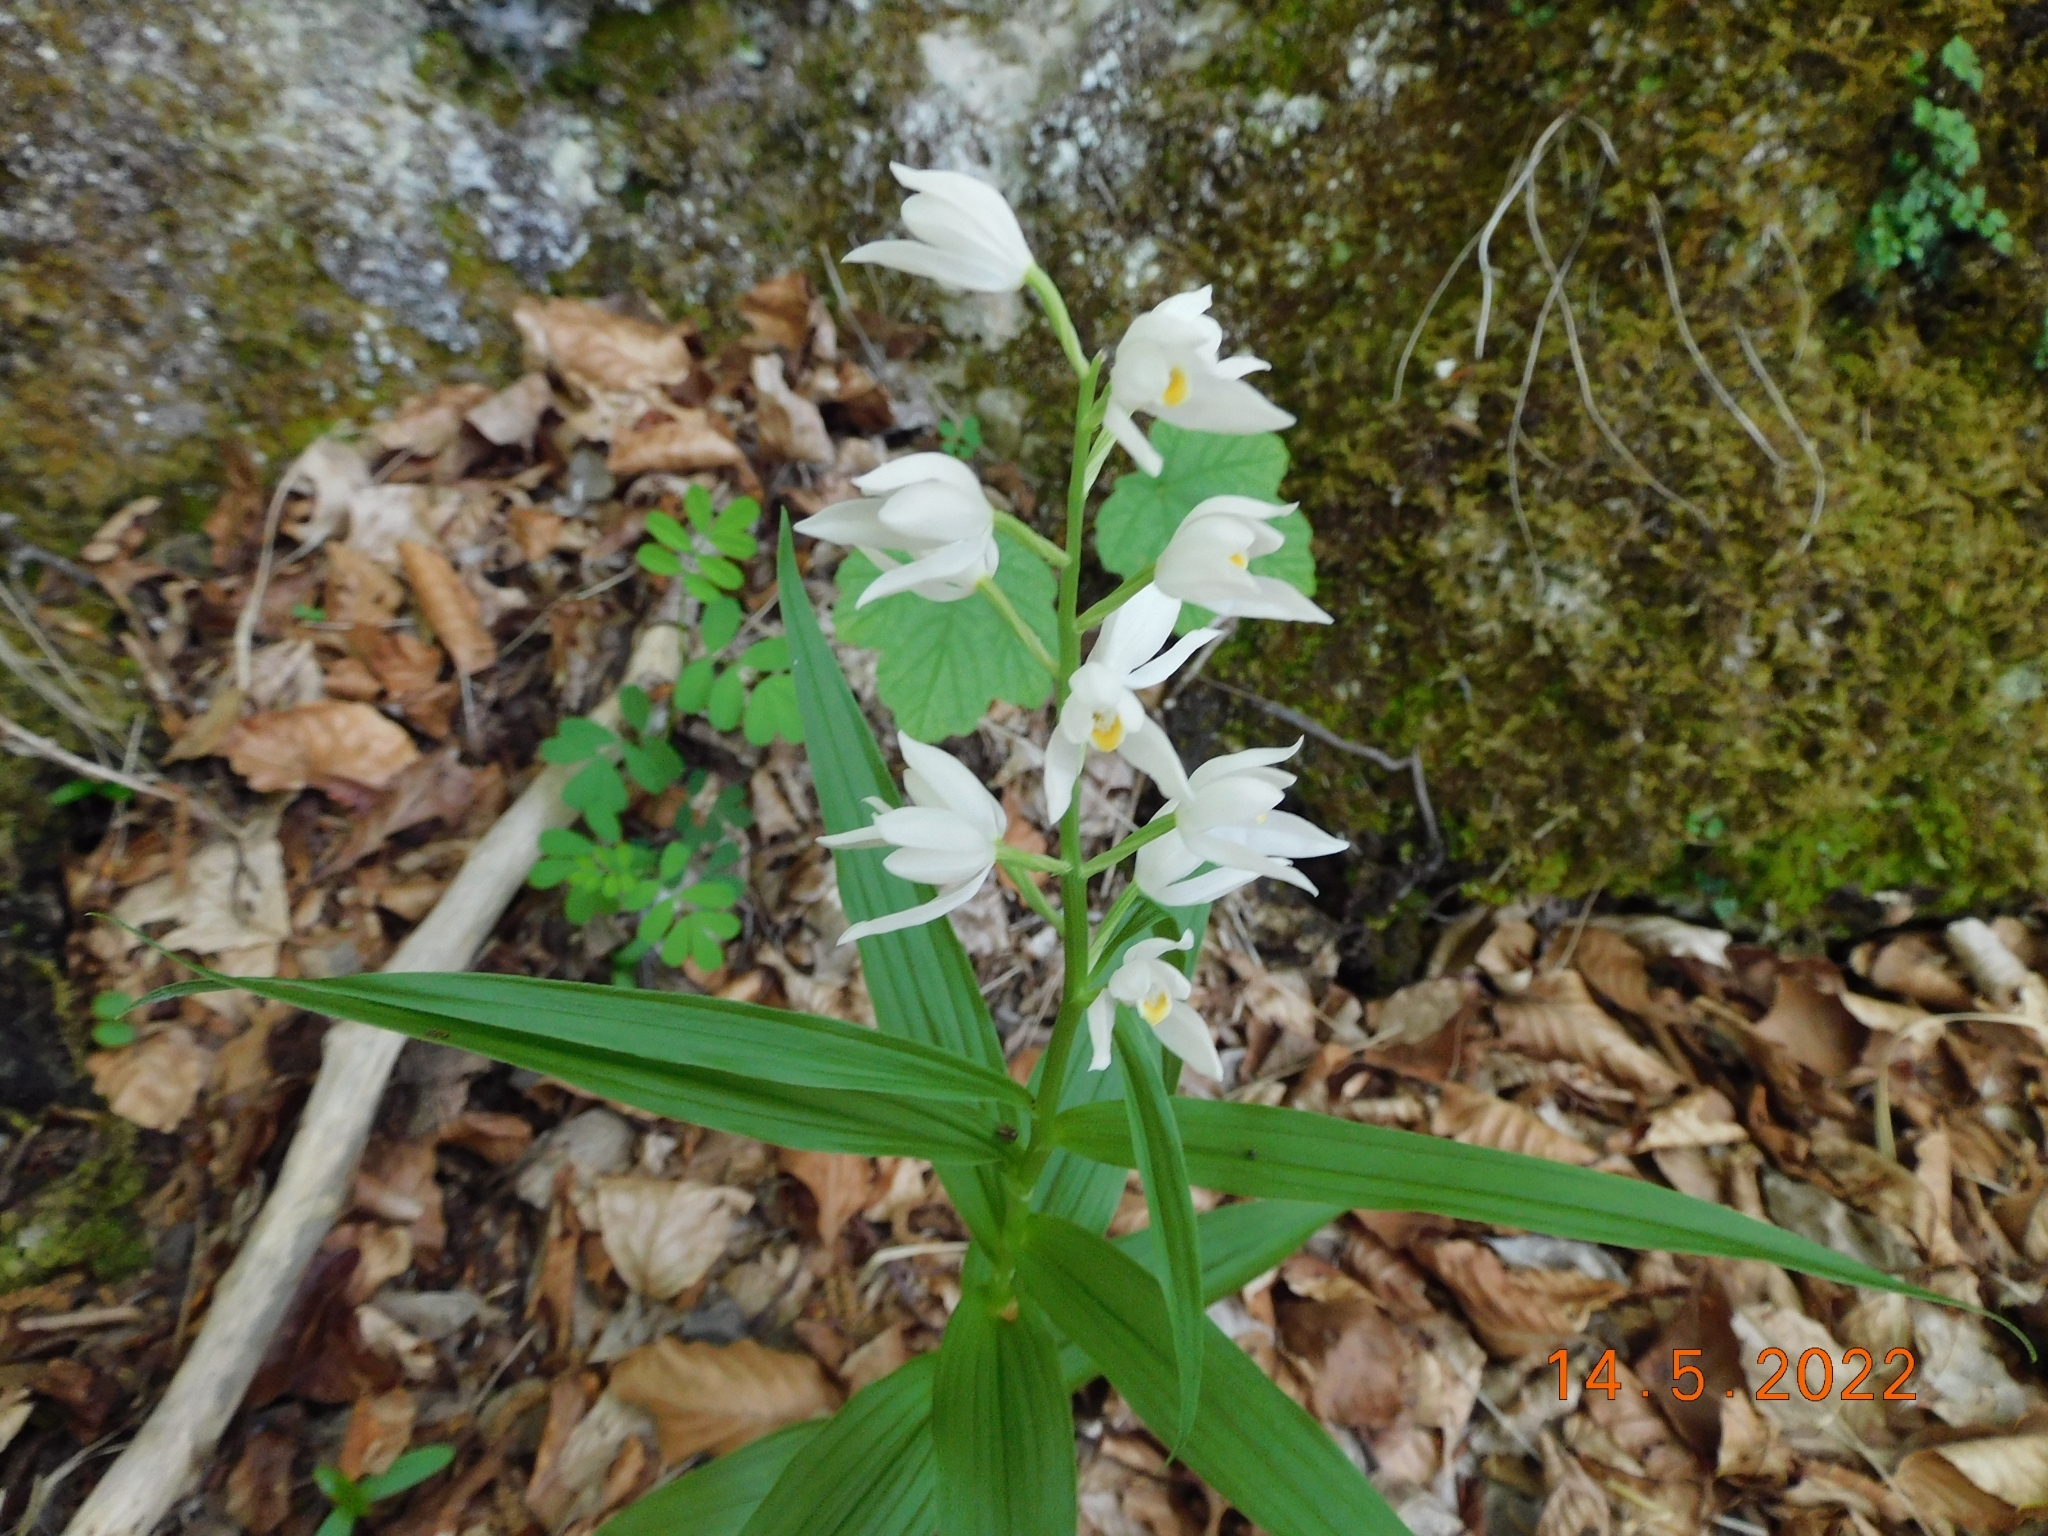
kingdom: Plantae
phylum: Tracheophyta
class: Liliopsida
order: Asparagales
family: Orchidaceae
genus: Cephalanthera
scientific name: Cephalanthera longifolia
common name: Narrow-leaved helleborine
